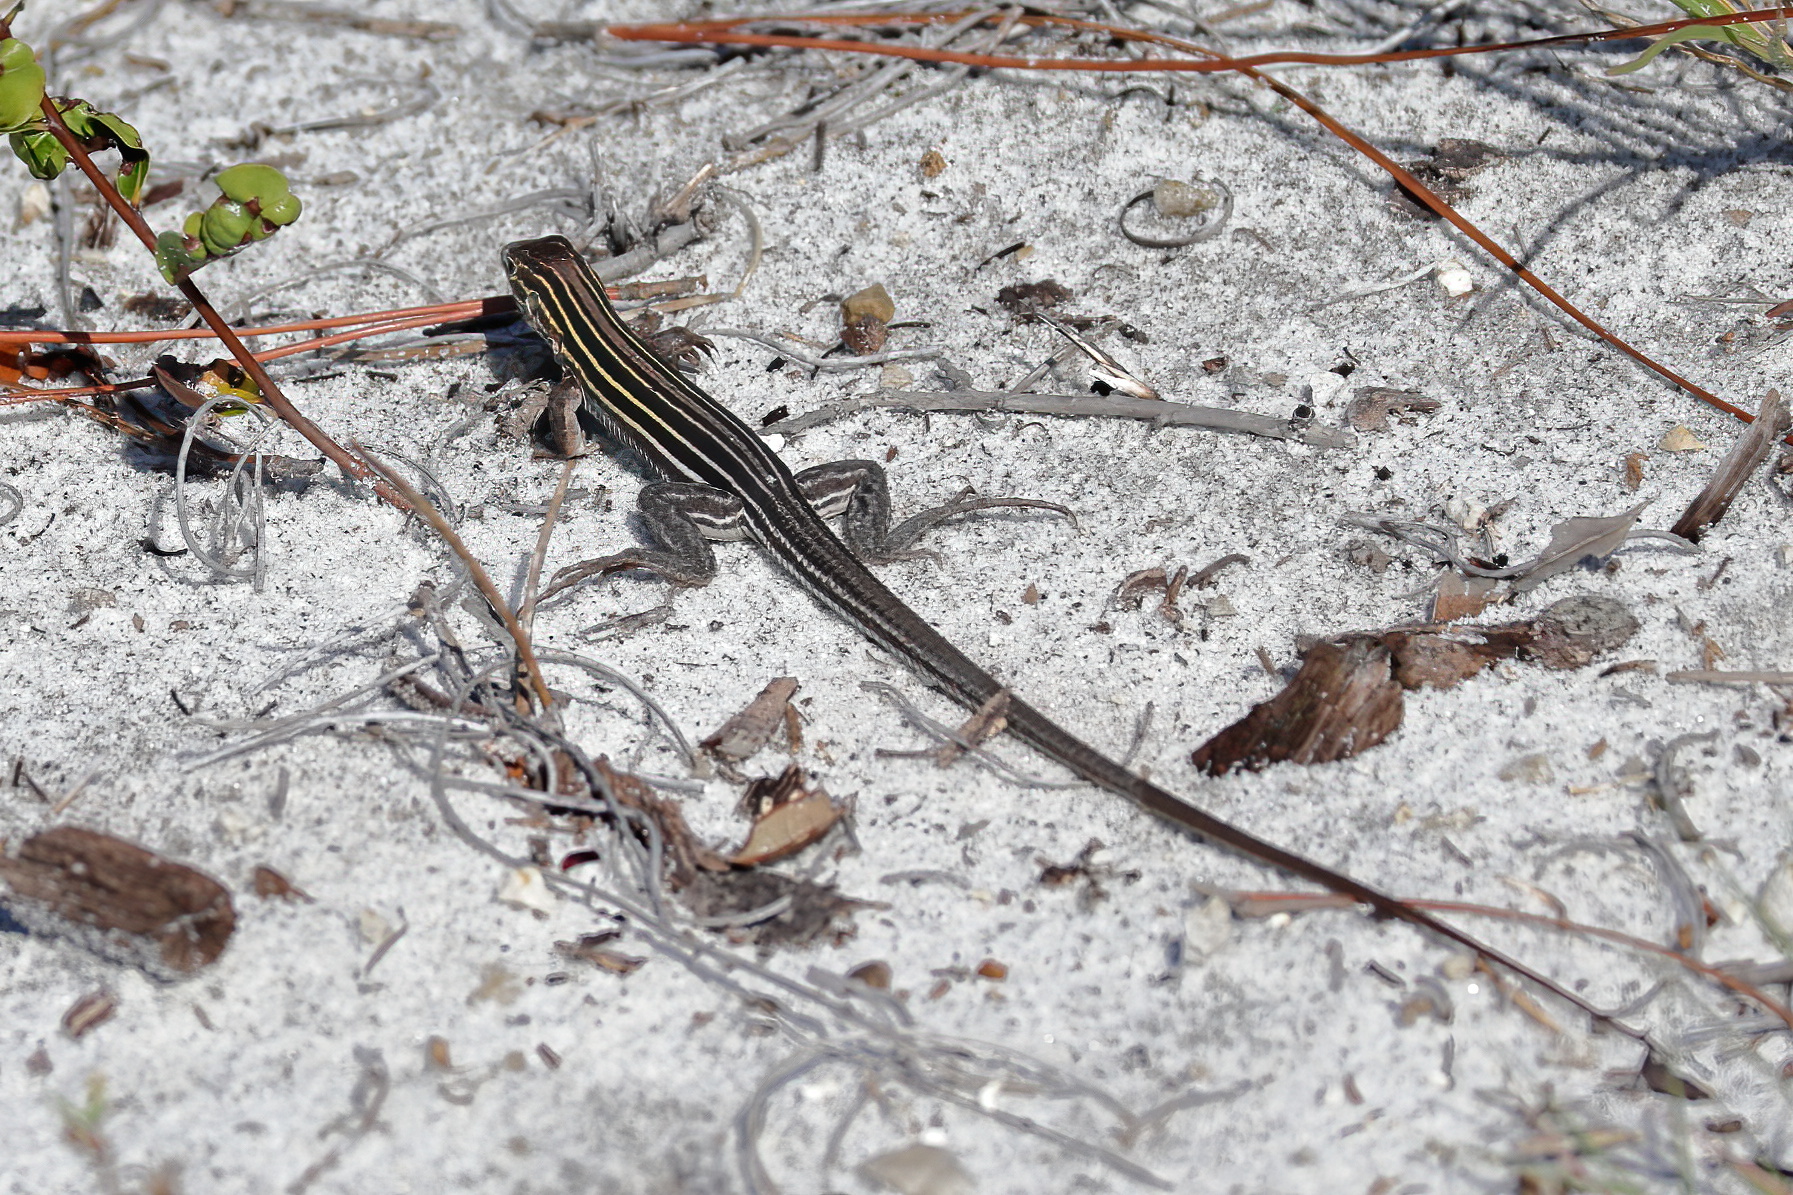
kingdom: Animalia
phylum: Chordata
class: Squamata
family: Teiidae
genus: Aspidoscelis
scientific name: Aspidoscelis sexlineatus
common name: Six-lined racerunner
